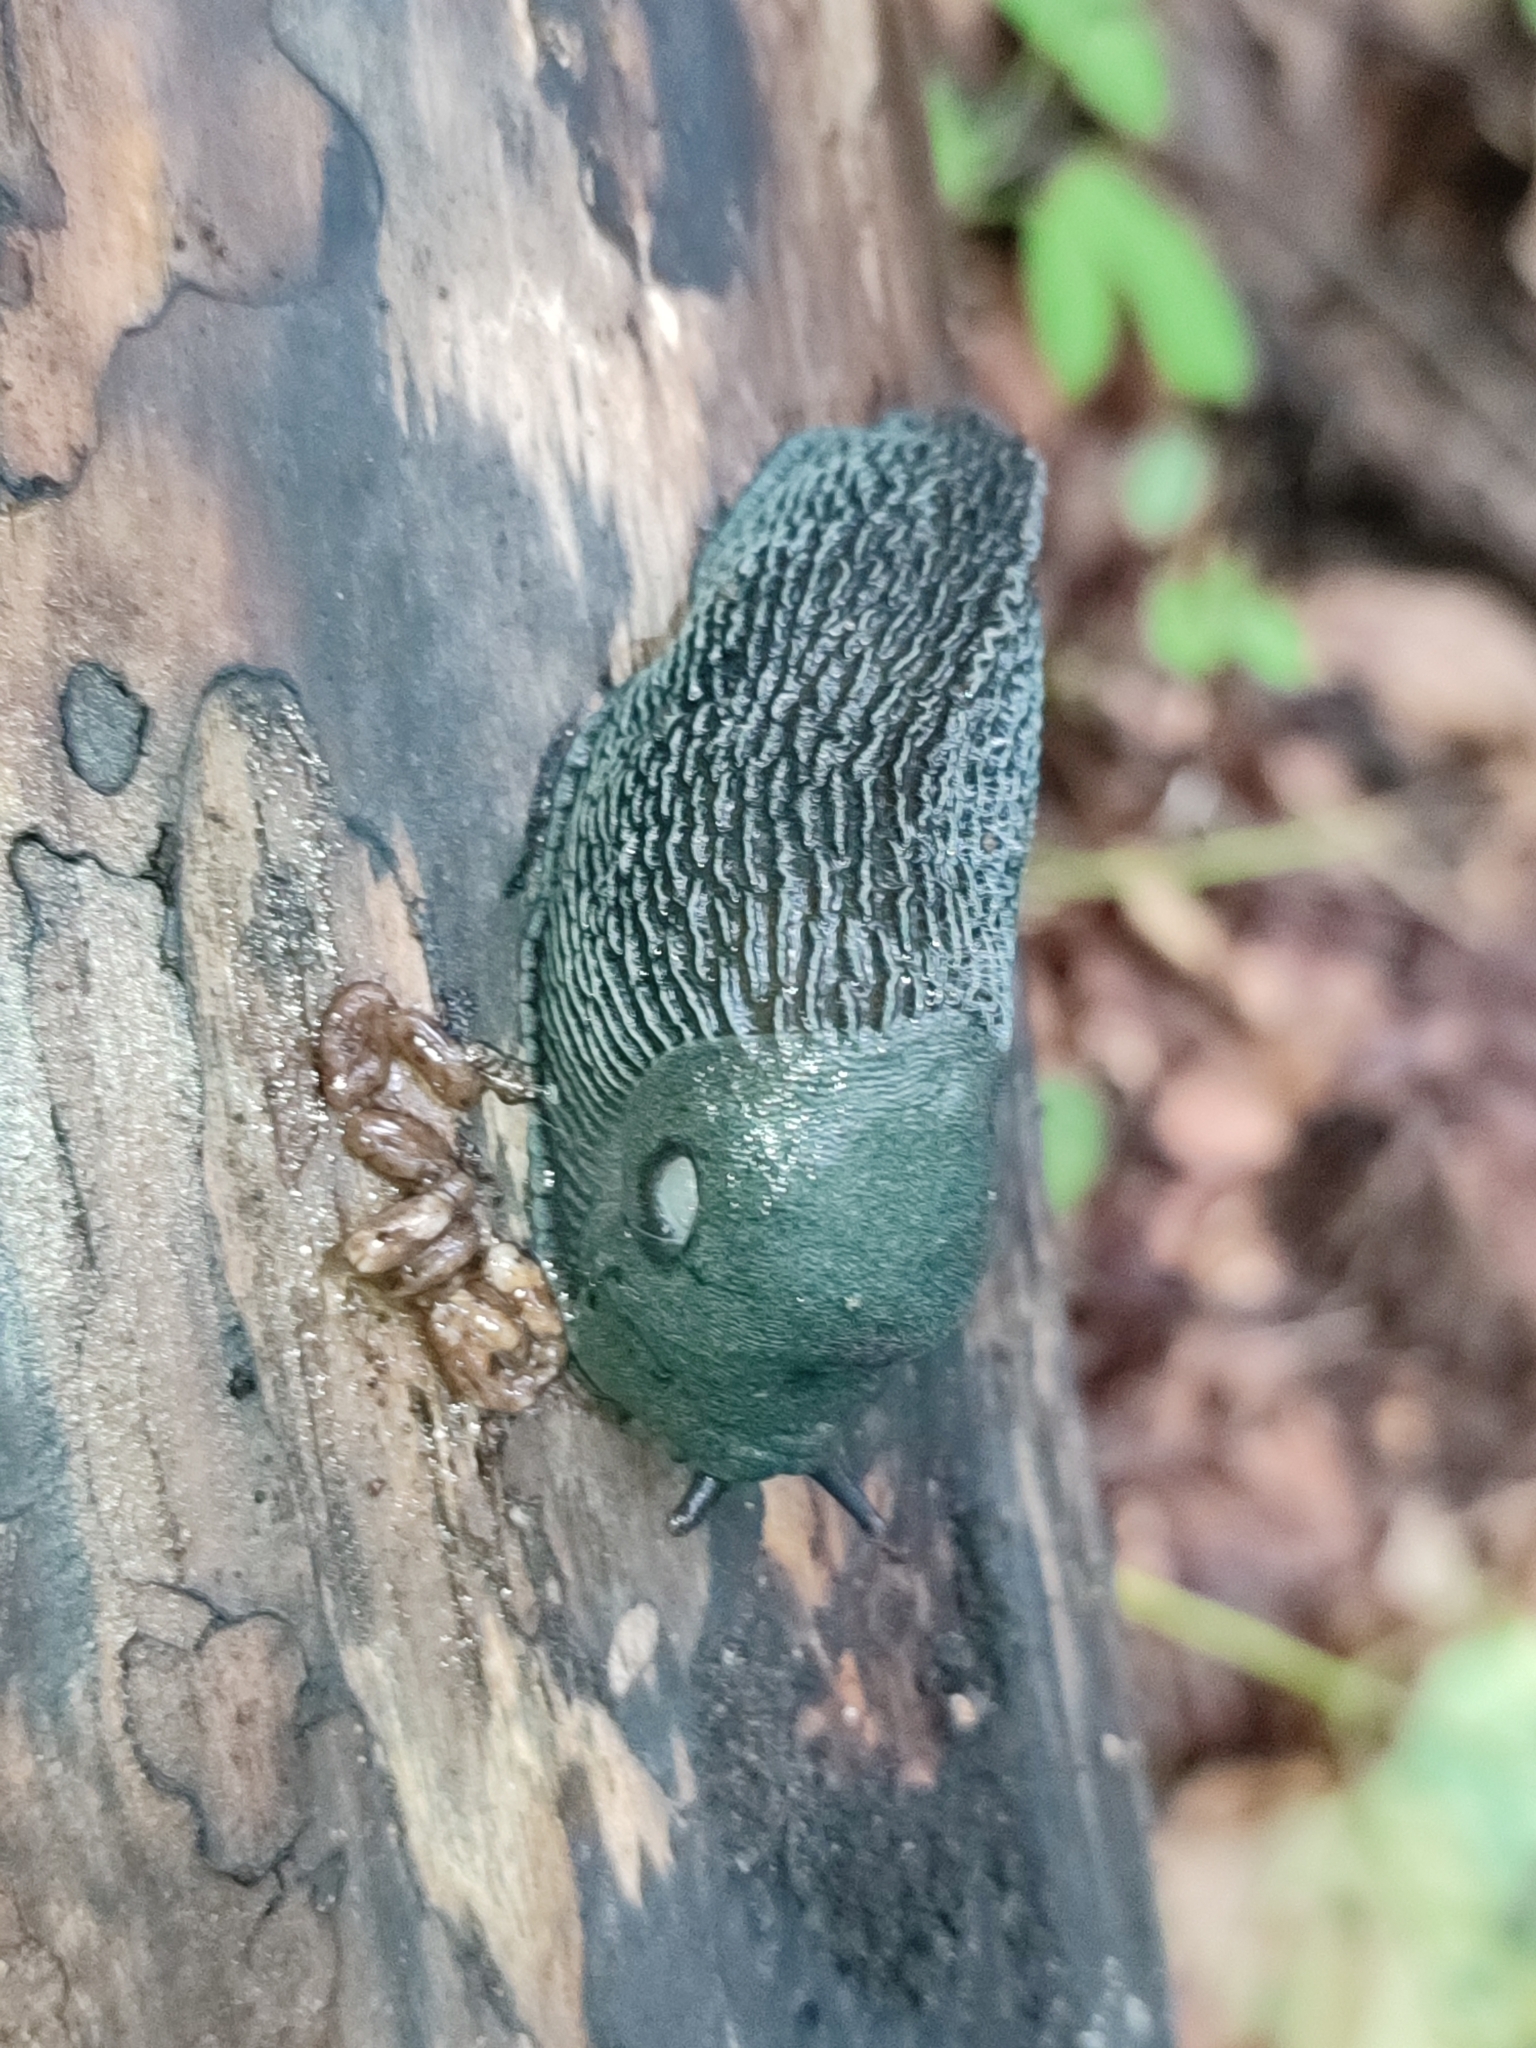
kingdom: Animalia
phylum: Mollusca
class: Gastropoda
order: Stylommatophora
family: Limacidae
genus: Bielzia
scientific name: Bielzia coerulans
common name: Carpathian blue slug
